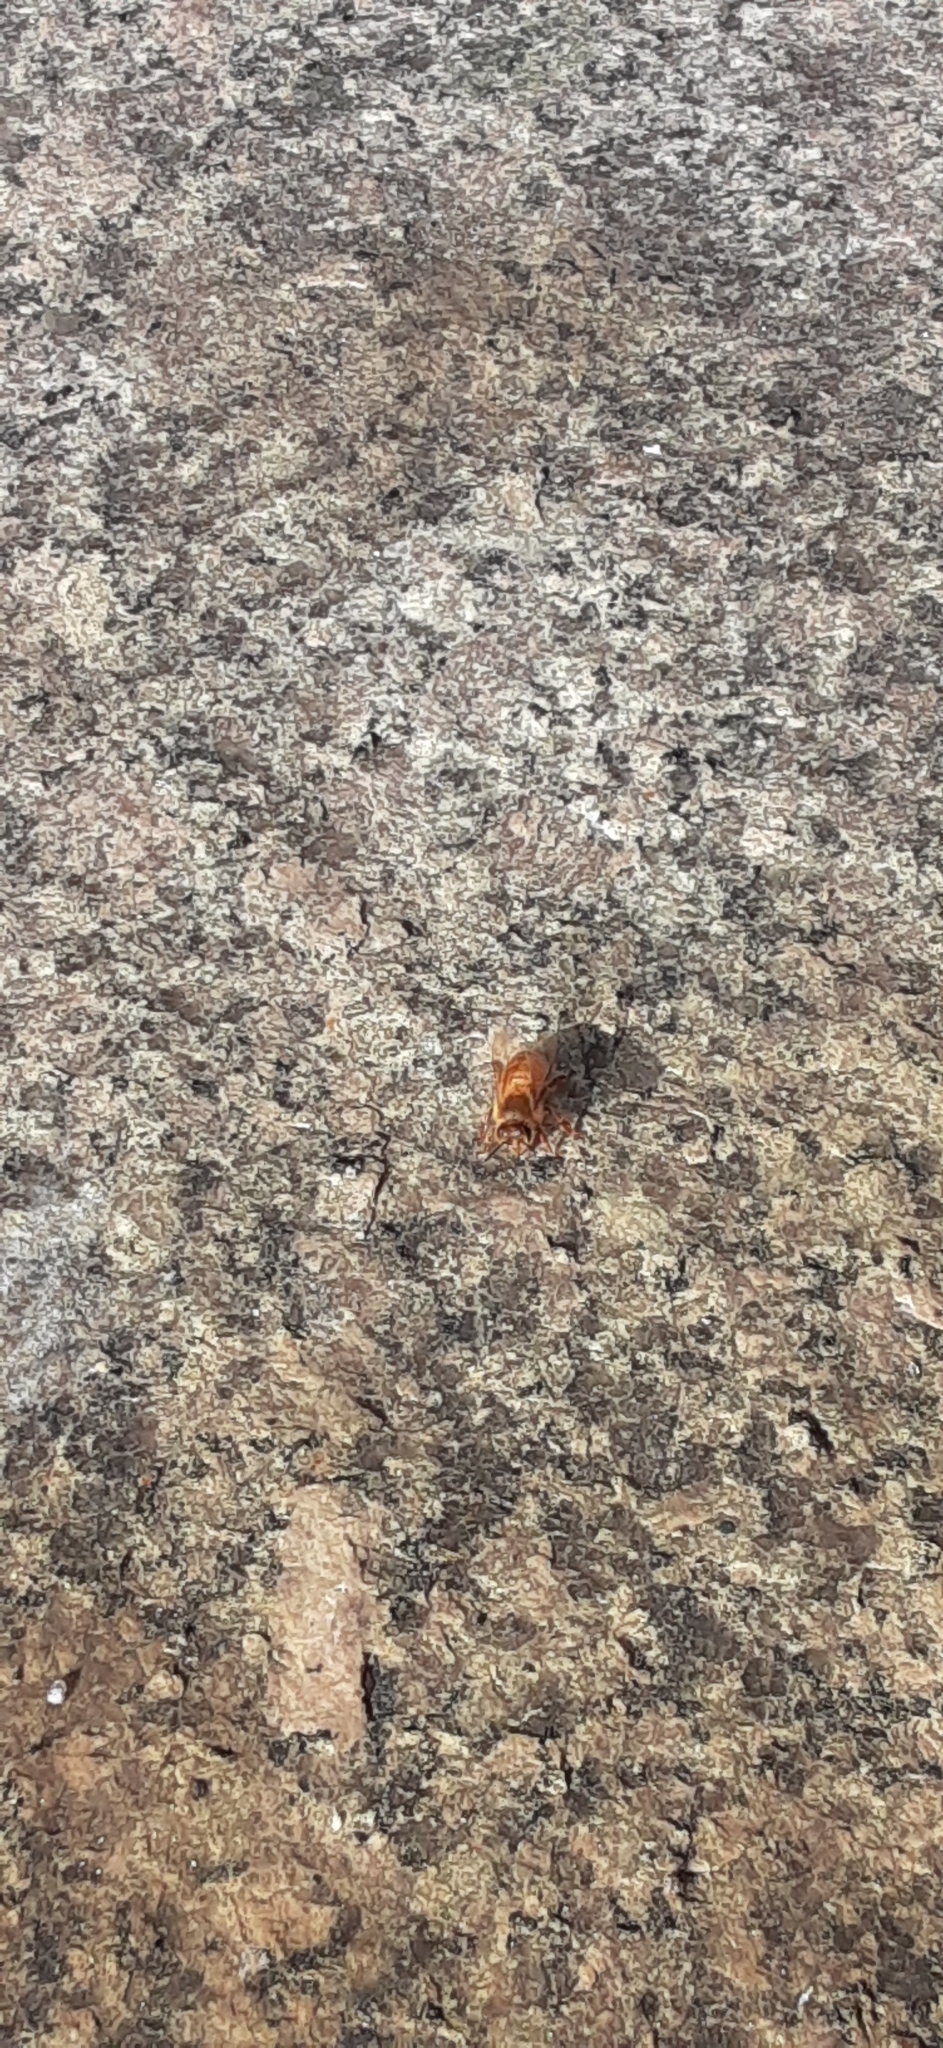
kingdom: Animalia
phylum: Arthropoda
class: Insecta
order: Hymenoptera
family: Apidae
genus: Apis
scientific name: Apis mellifera
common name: Honey bee
